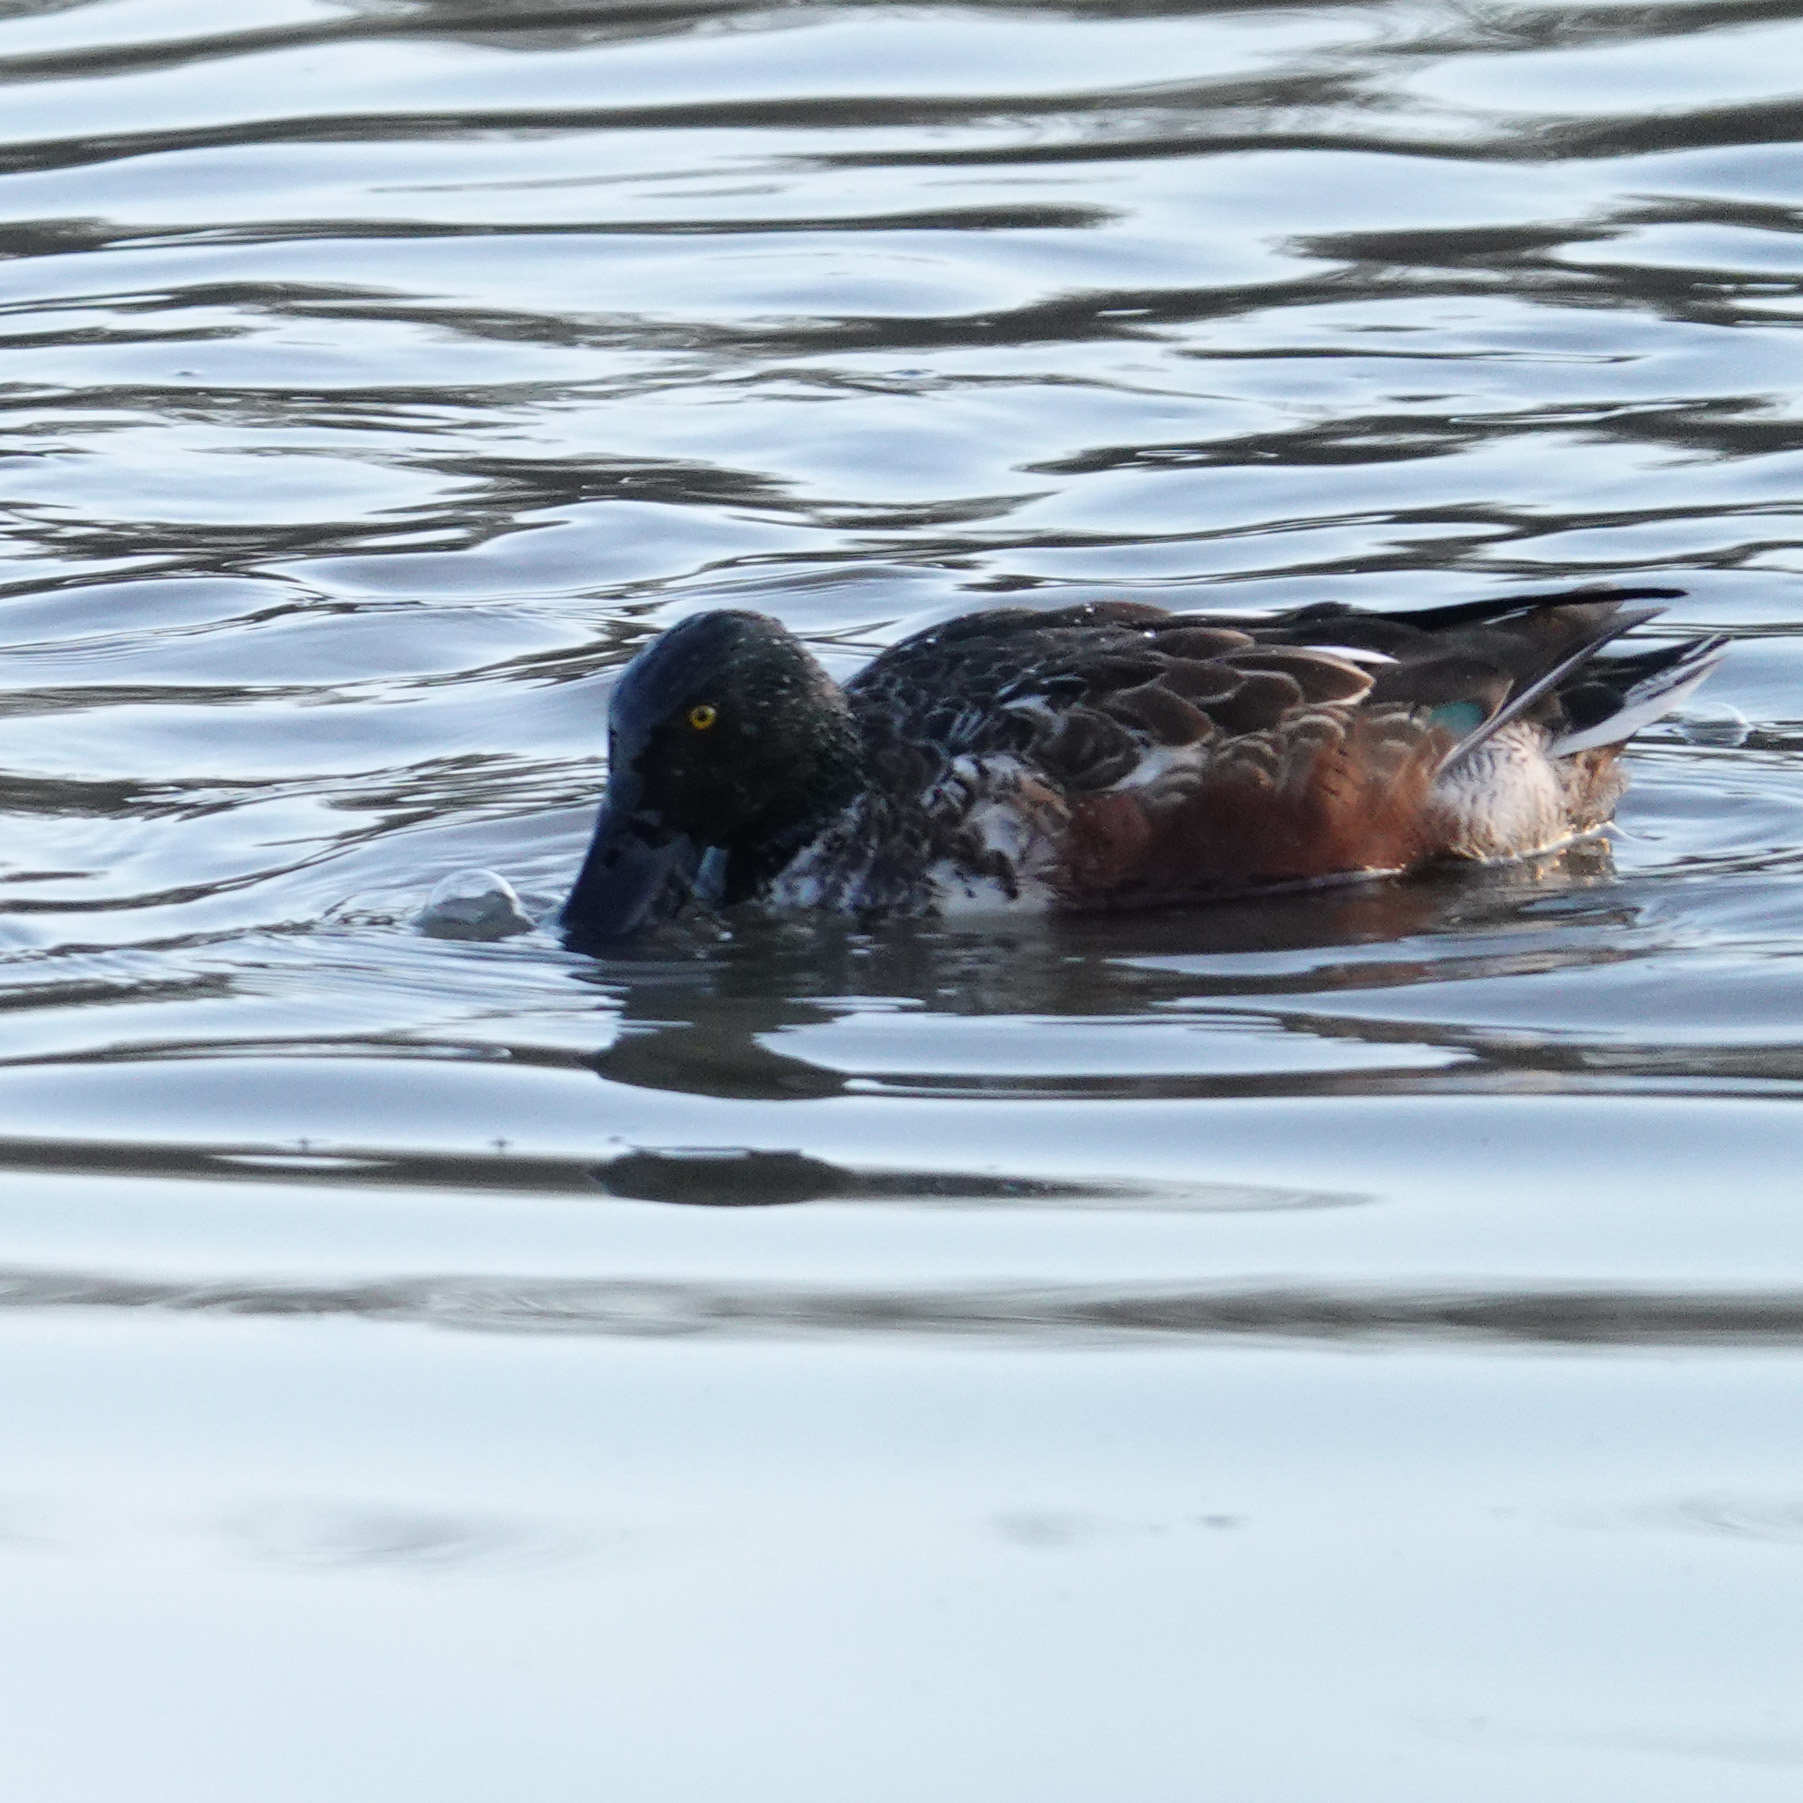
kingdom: Animalia
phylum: Chordata
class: Aves
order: Anseriformes
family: Anatidae
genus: Spatula
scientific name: Spatula clypeata
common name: Northern shoveler
